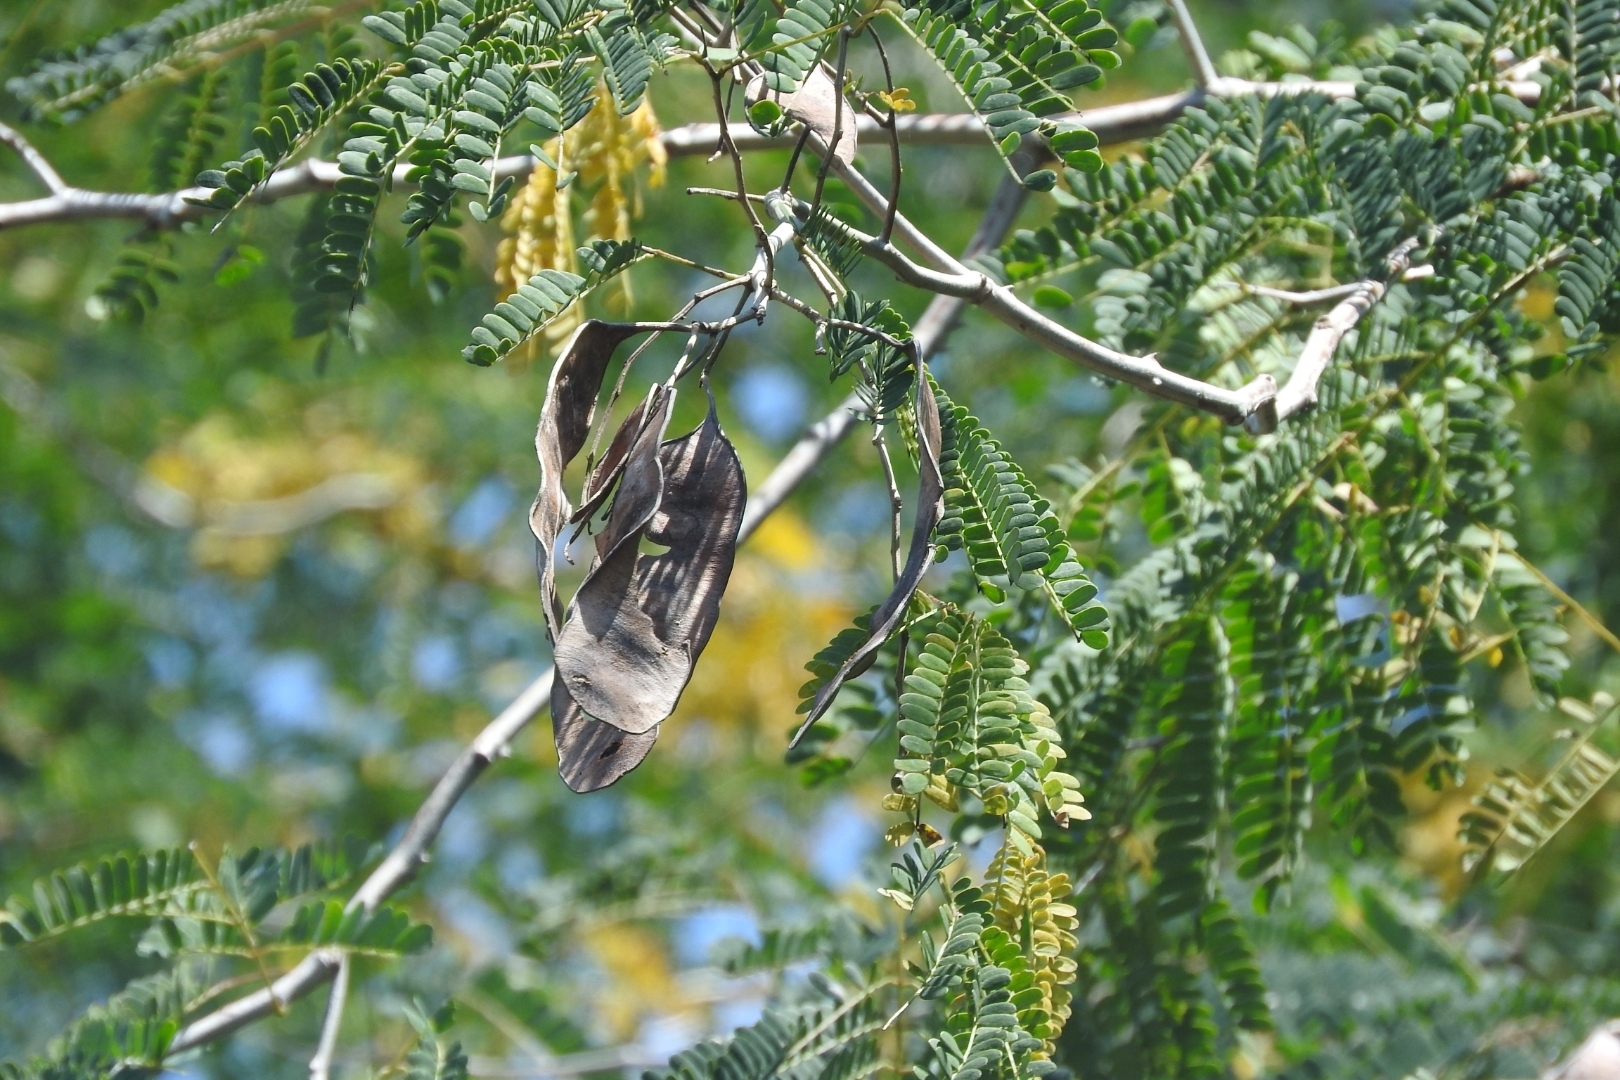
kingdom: Plantae
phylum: Tracheophyta
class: Magnoliopsida
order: Fabales
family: Fabaceae
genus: Lysiloma
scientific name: Lysiloma latisiliquum
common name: Wild tamarind
